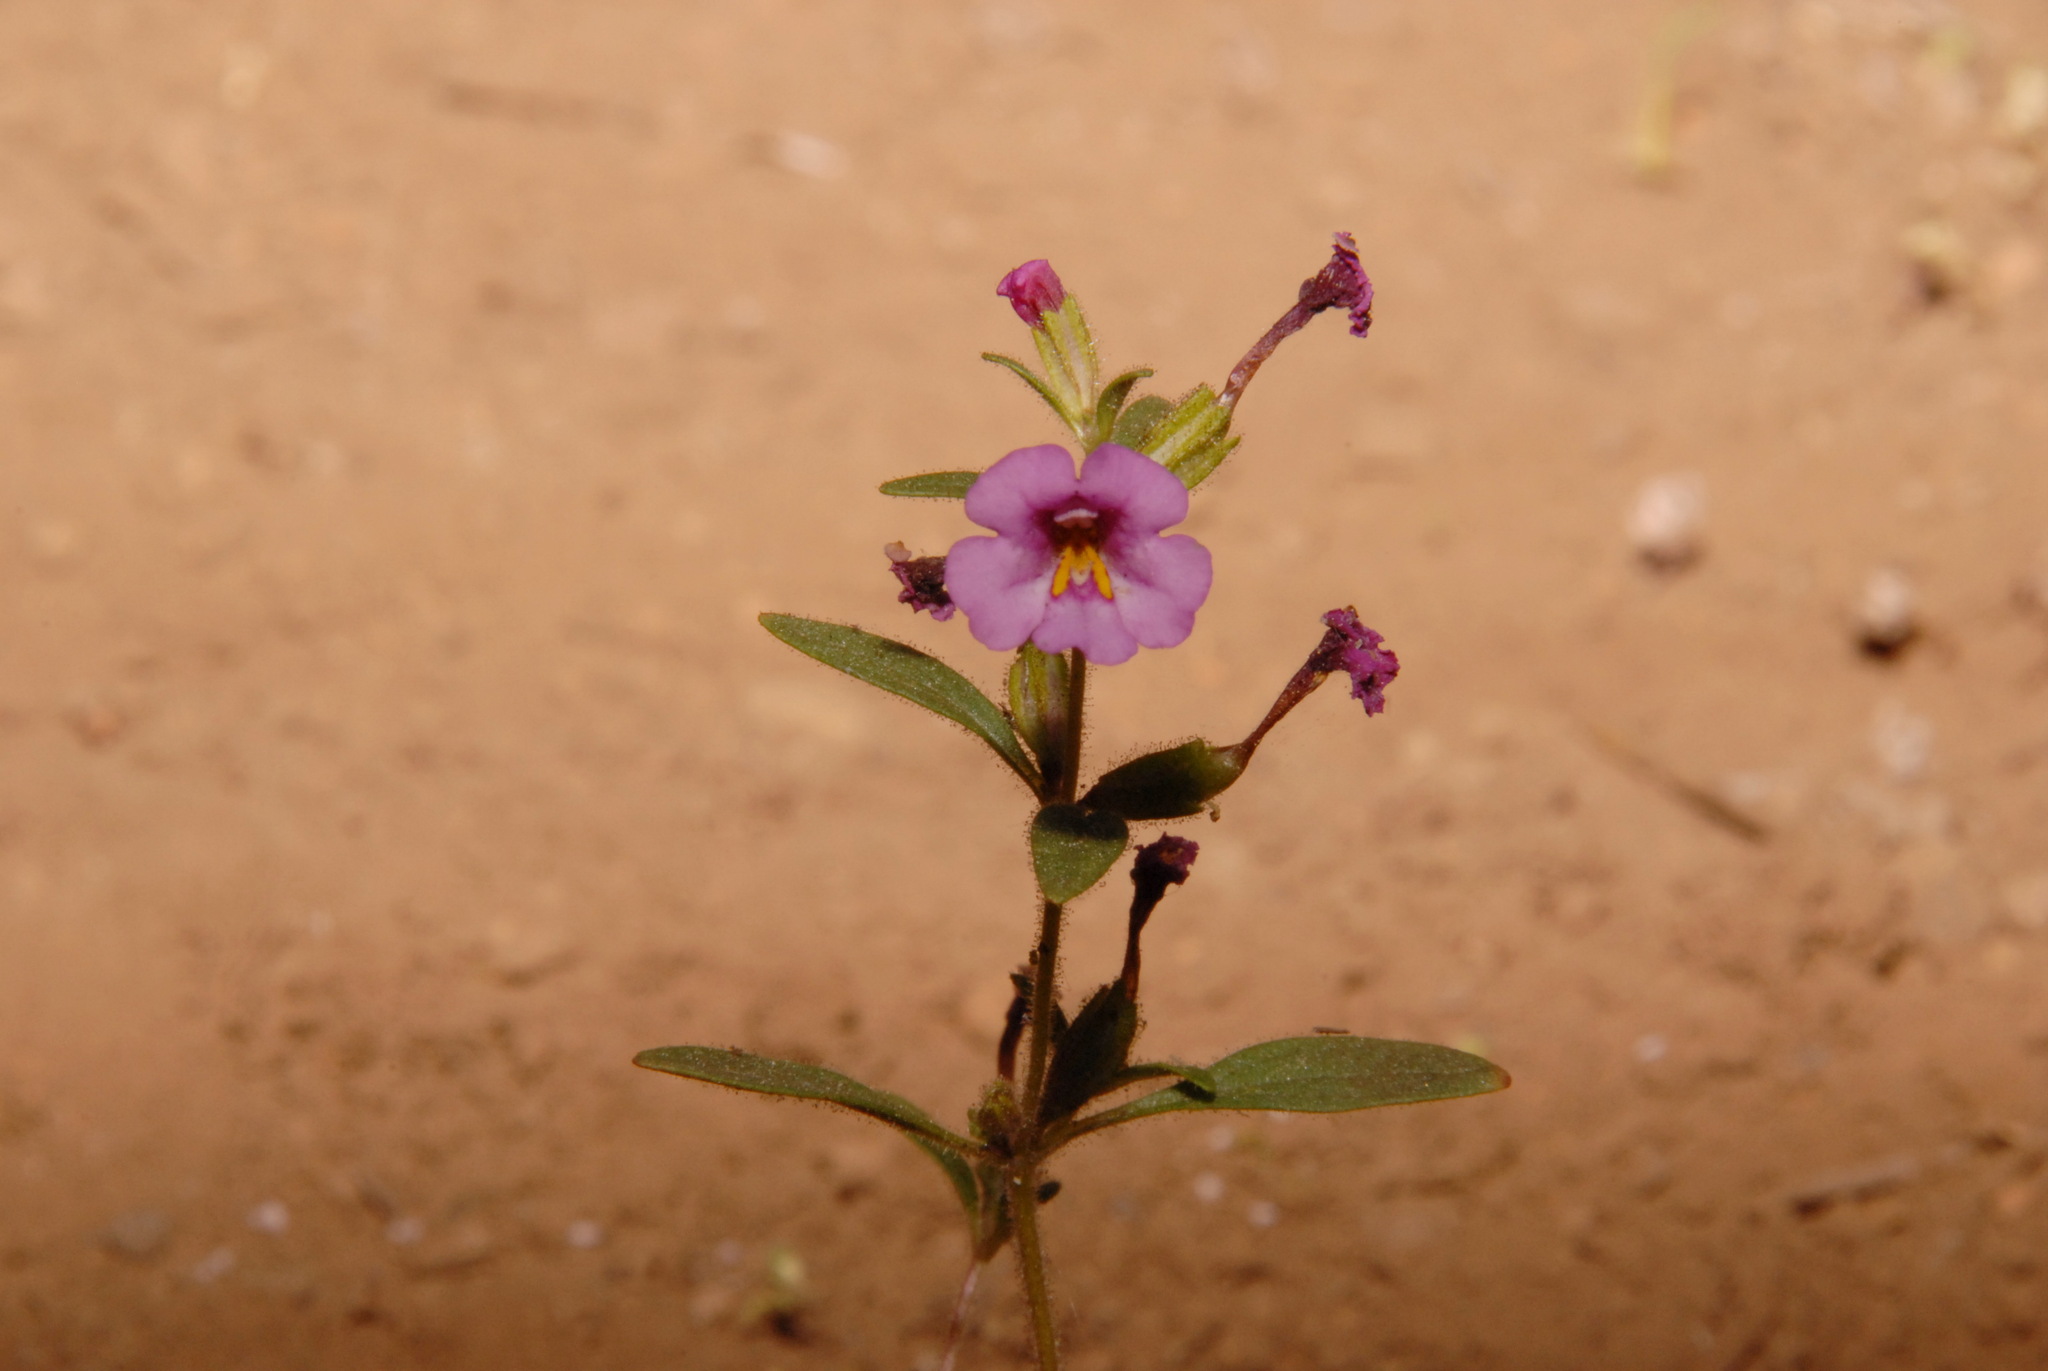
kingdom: Plantae
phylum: Tracheophyta
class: Magnoliopsida
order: Lamiales
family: Phrymaceae
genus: Diplacus
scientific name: Diplacus torreyi
